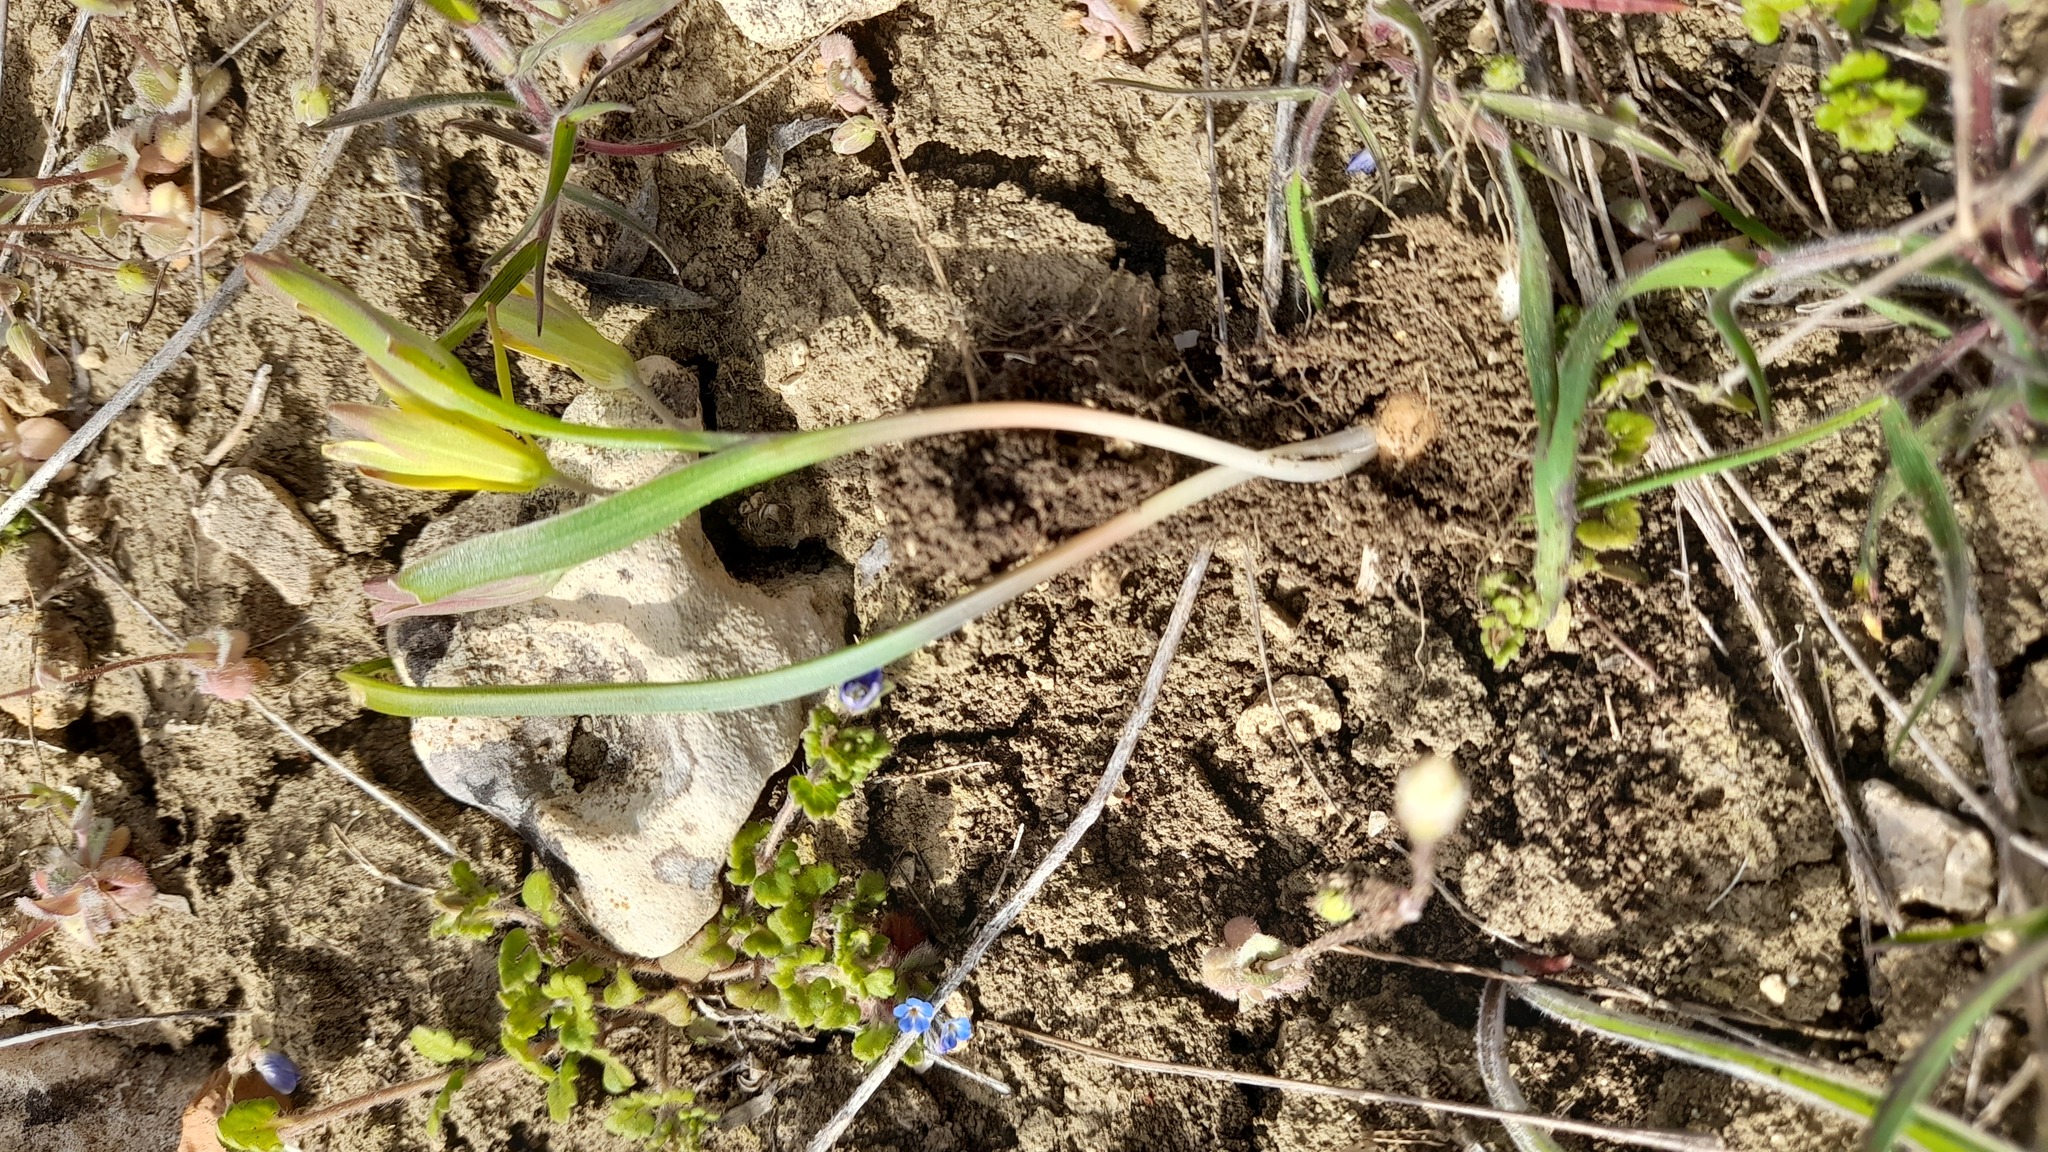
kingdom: Plantae
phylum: Tracheophyta
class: Liliopsida
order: Liliales
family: Liliaceae
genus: Gagea
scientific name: Gagea artemczukii
